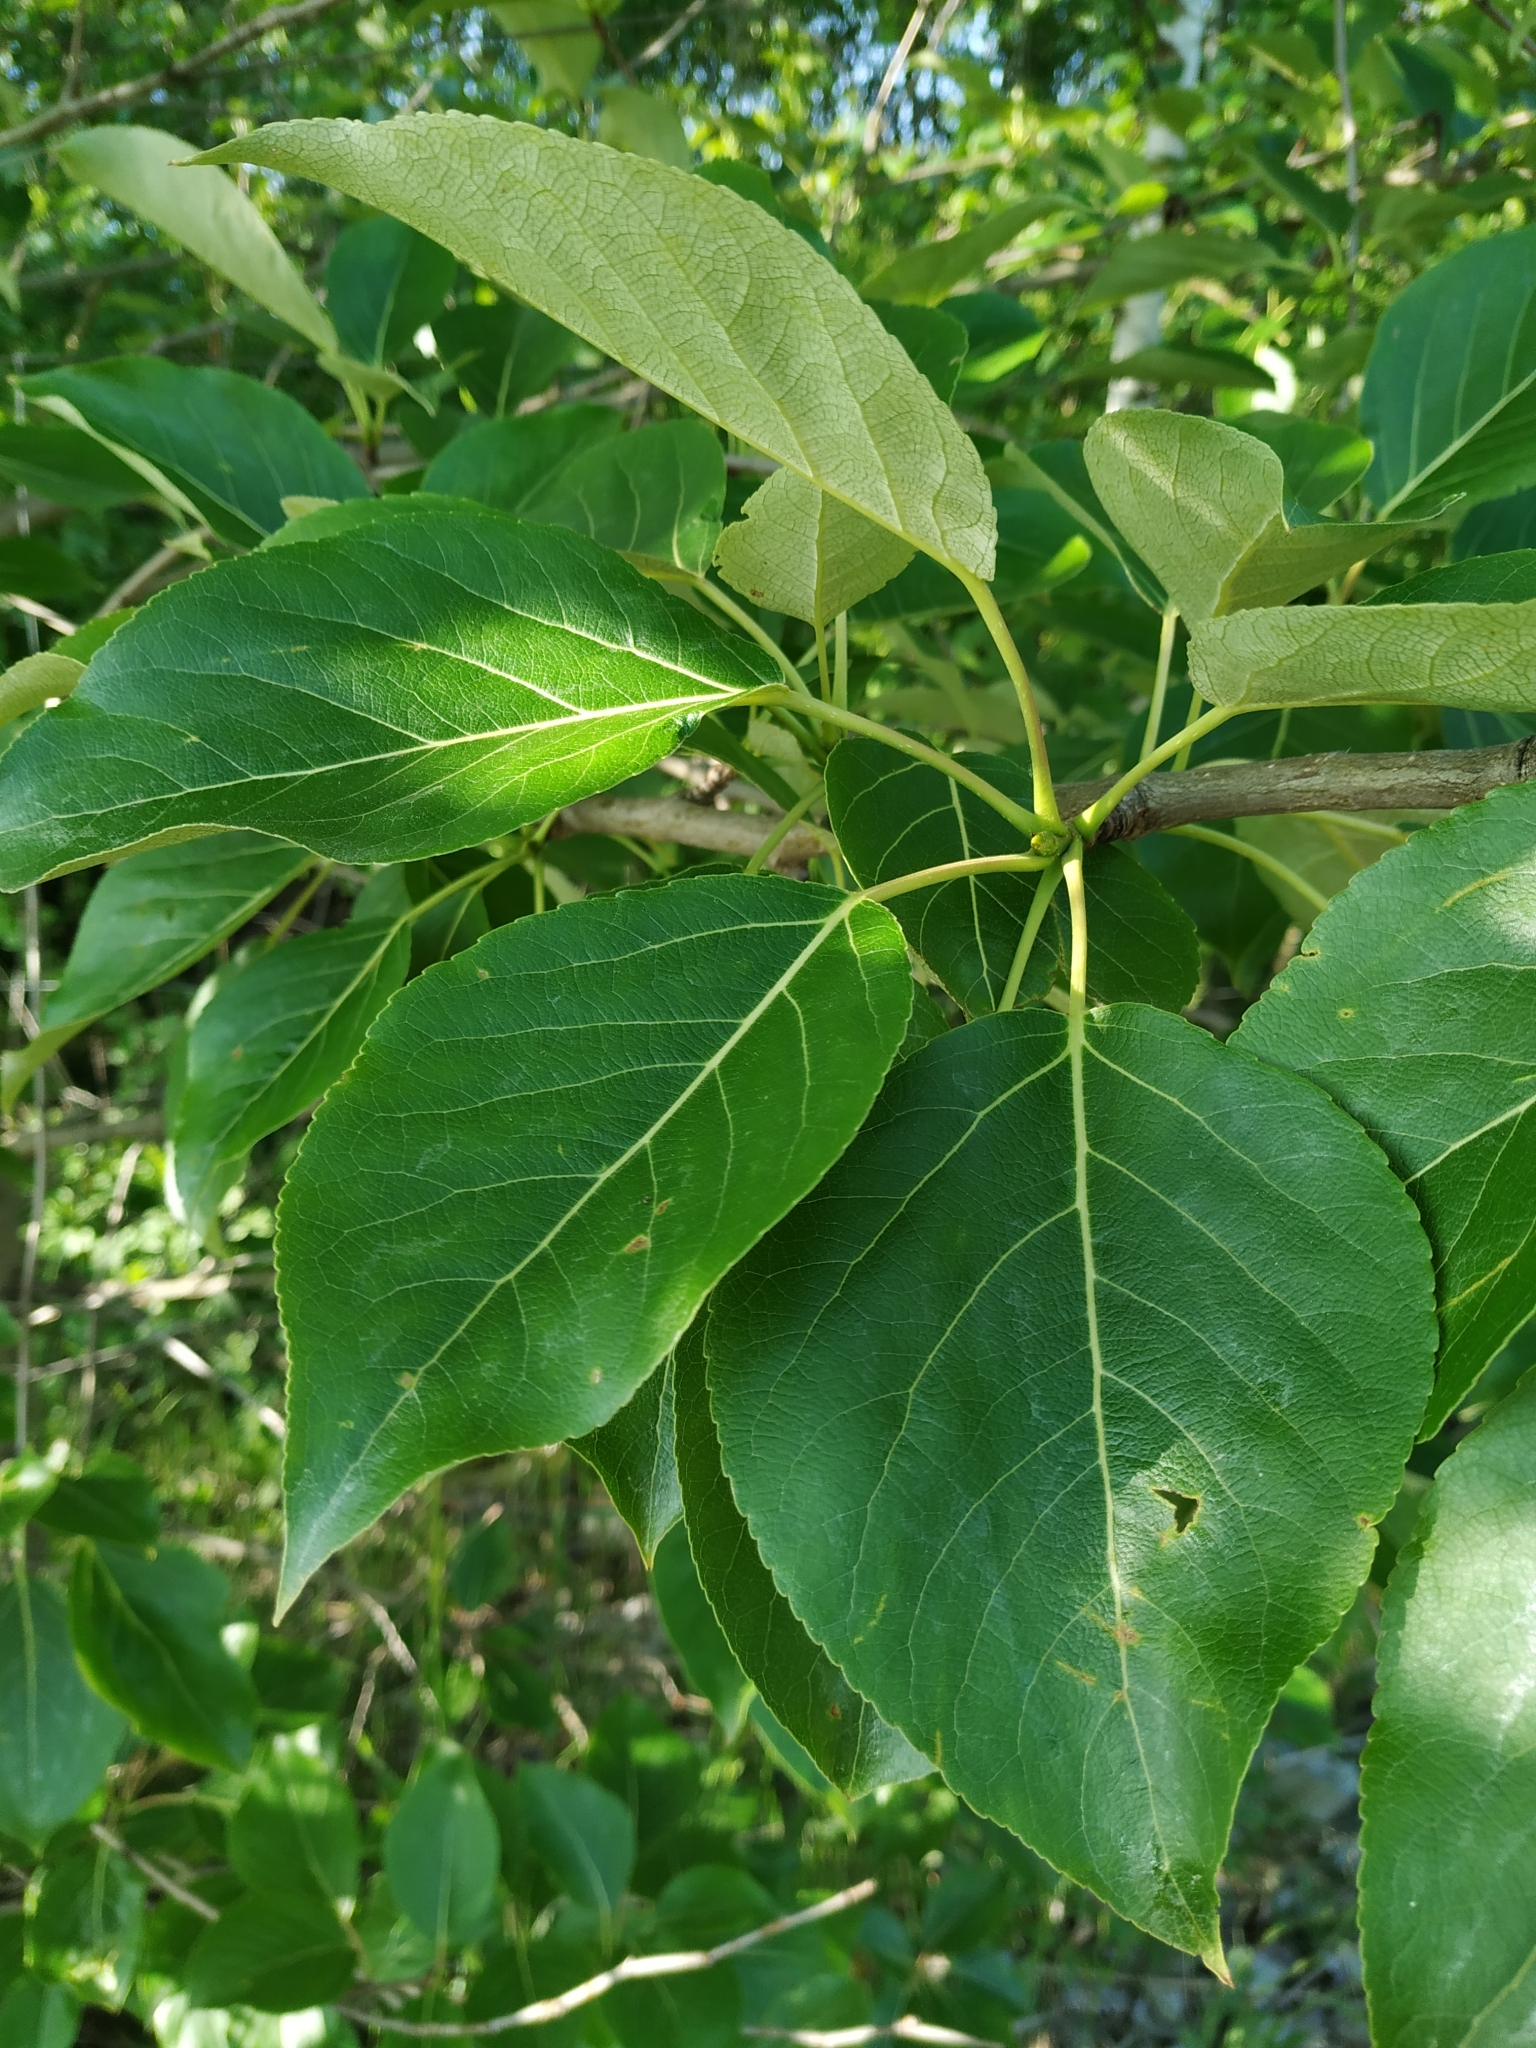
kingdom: Plantae
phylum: Tracheophyta
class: Magnoliopsida
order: Malpighiales
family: Salicaceae
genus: Populus
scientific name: Populus balsamifera
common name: Balsam poplar
